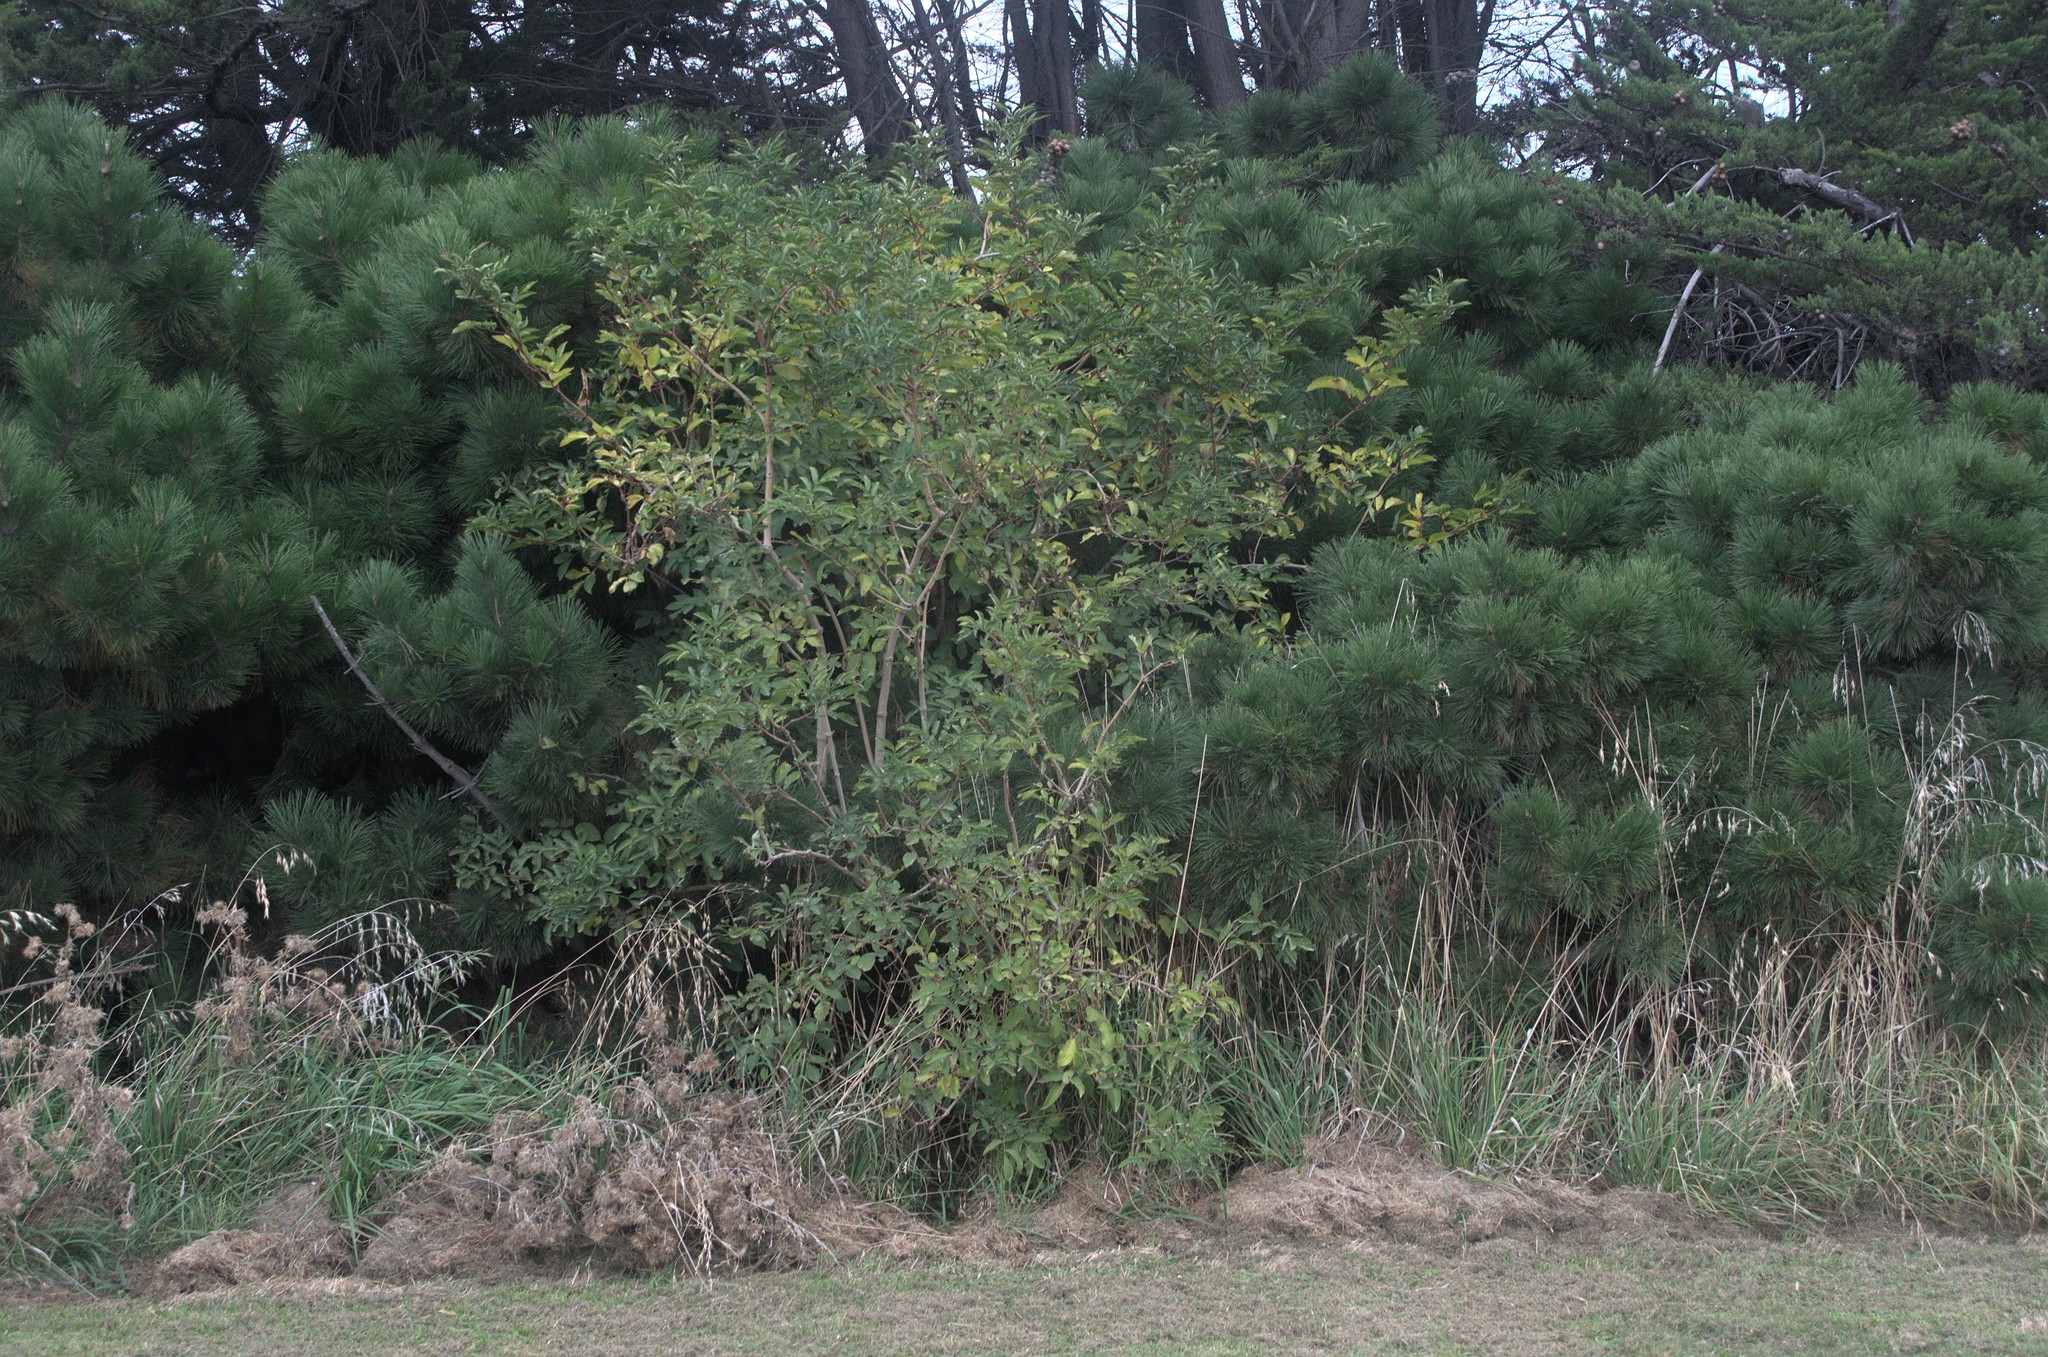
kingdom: Plantae
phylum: Tracheophyta
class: Magnoliopsida
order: Dipsacales
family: Viburnaceae
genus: Sambucus
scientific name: Sambucus nigra
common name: Elder
